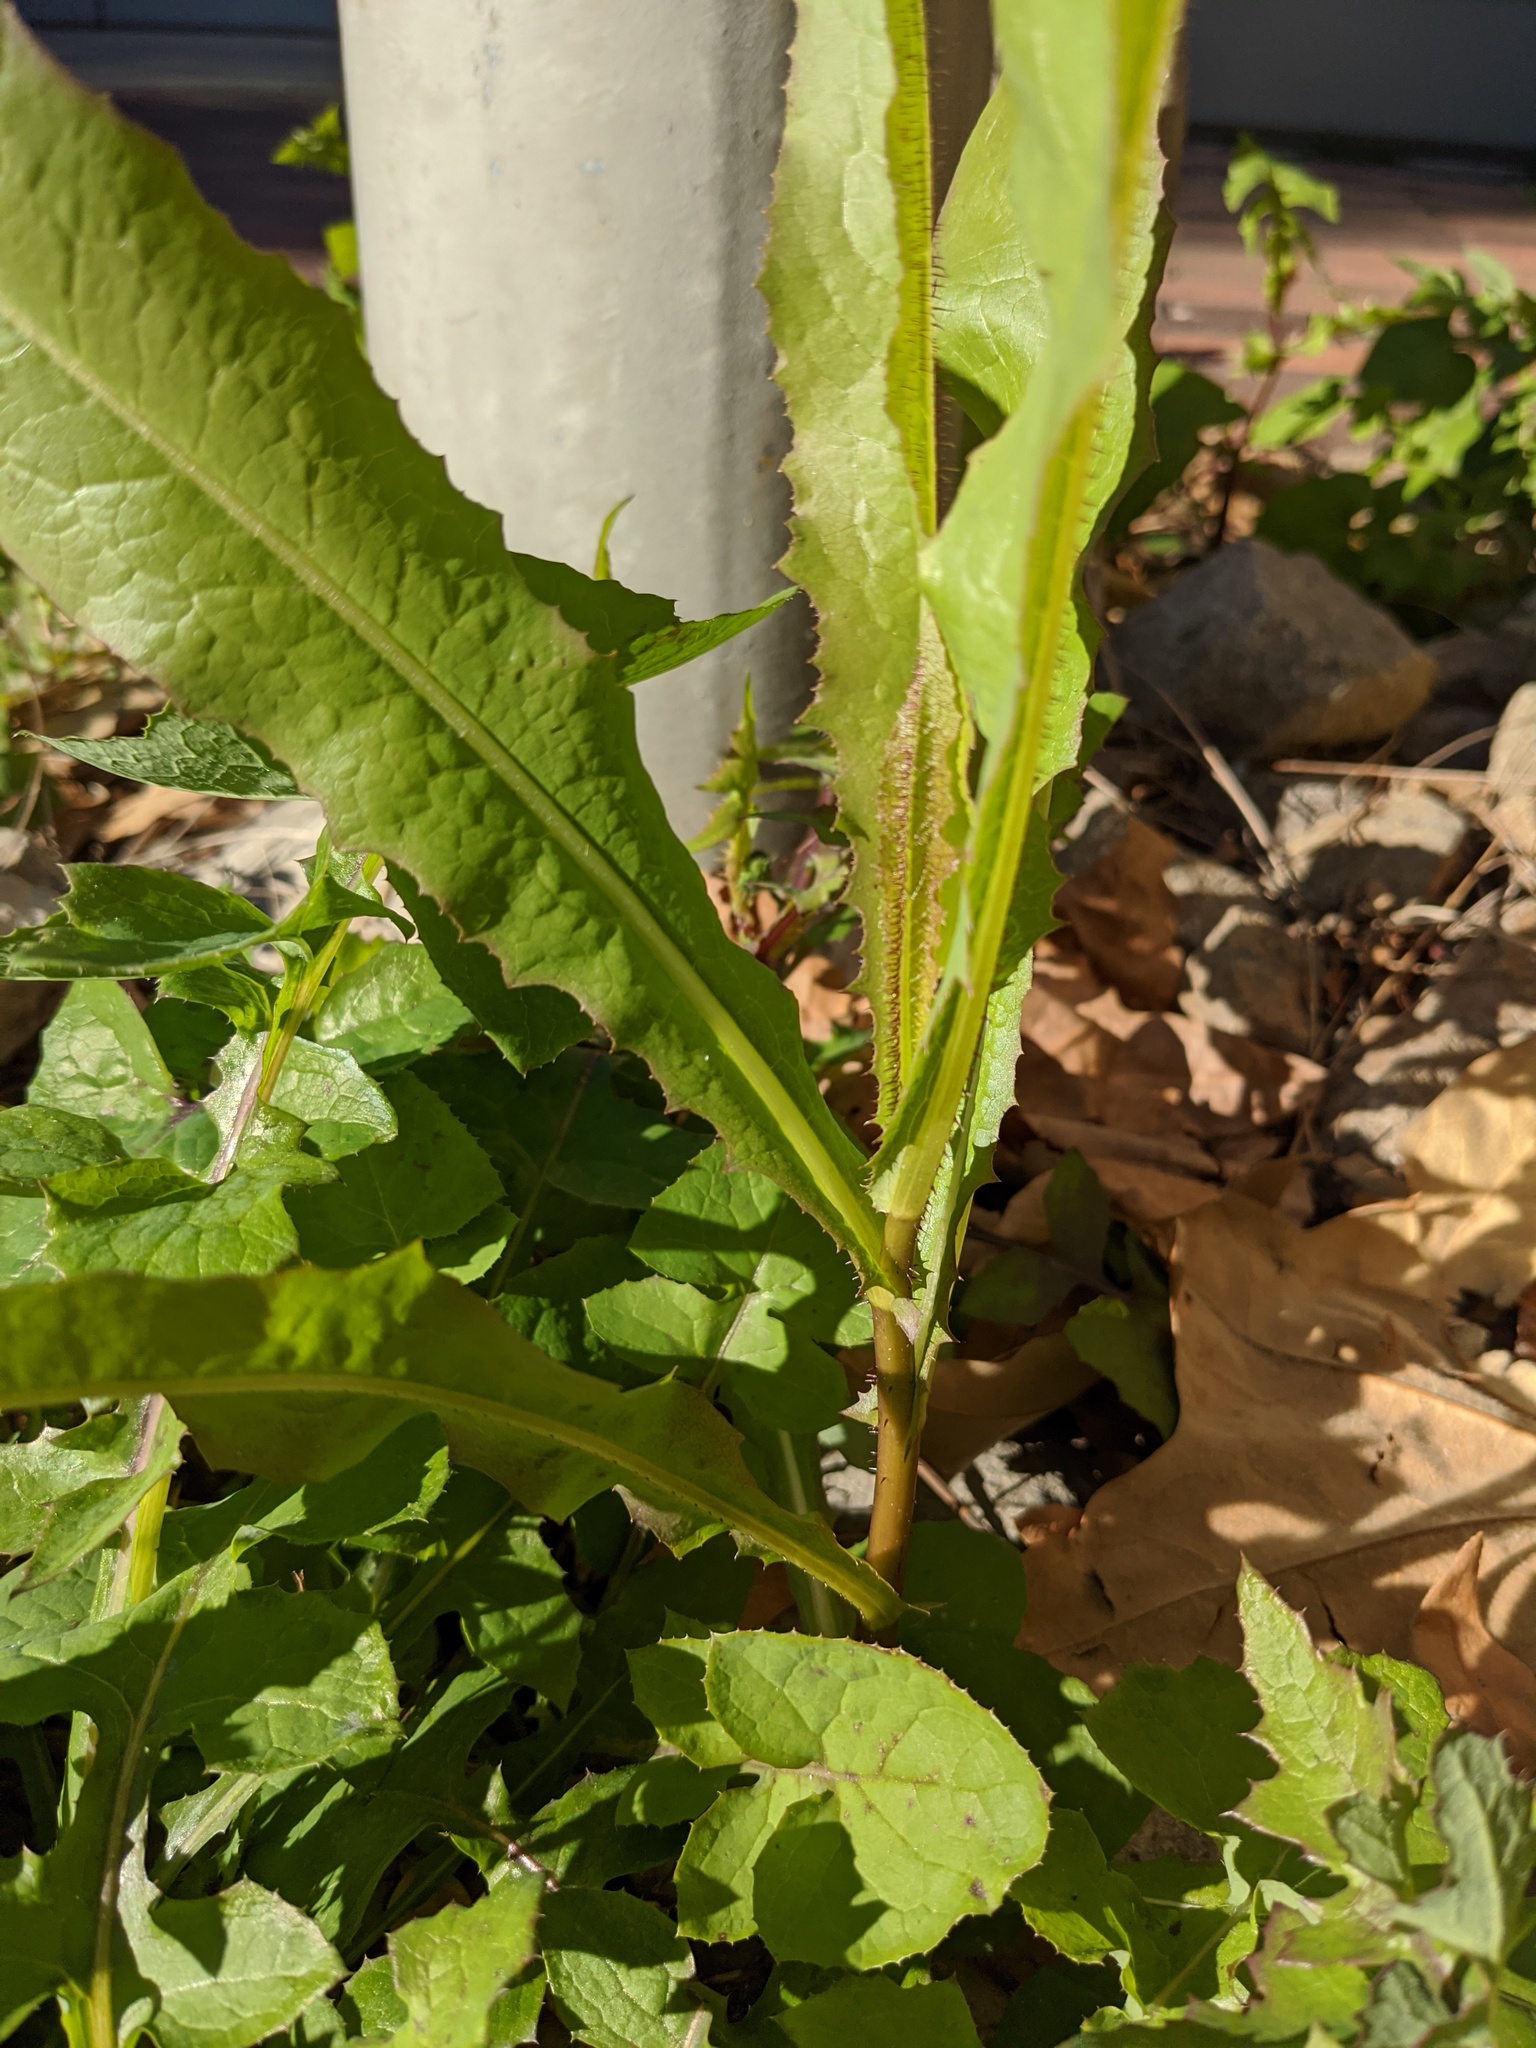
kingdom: Plantae
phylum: Tracheophyta
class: Magnoliopsida
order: Asterales
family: Asteraceae
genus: Lactuca
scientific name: Lactuca serriola
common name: Prickly lettuce
